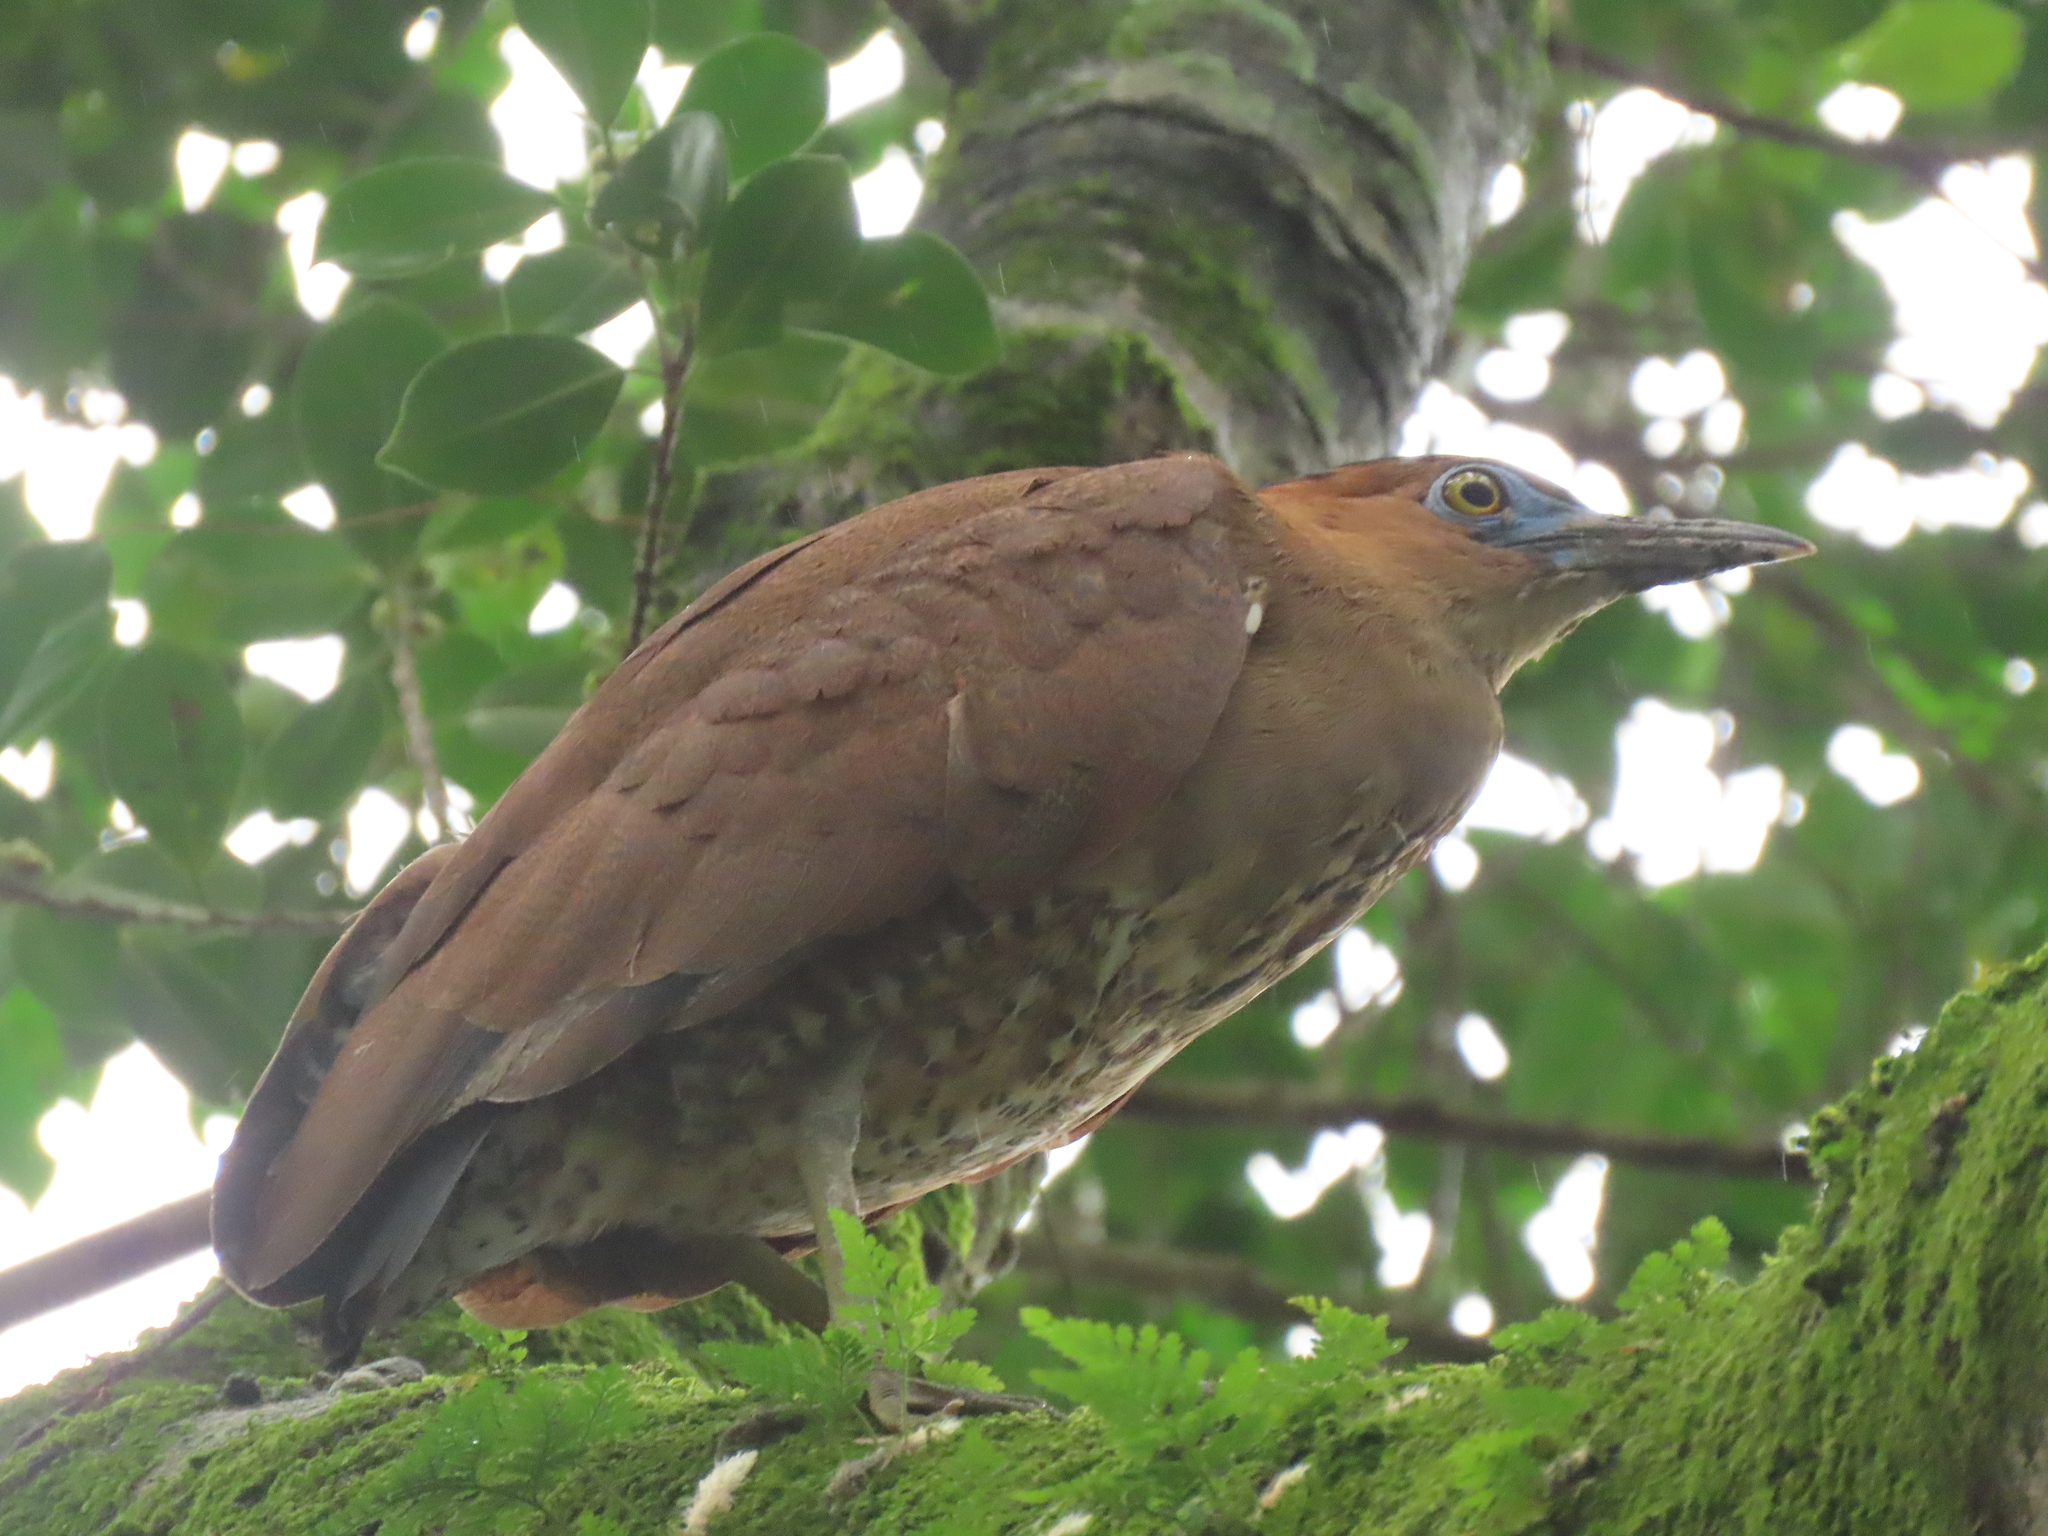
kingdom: Animalia
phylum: Chordata
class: Aves
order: Pelecaniformes
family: Ardeidae
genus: Gorsachius
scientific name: Gorsachius melanolophus
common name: Malayan night heron
